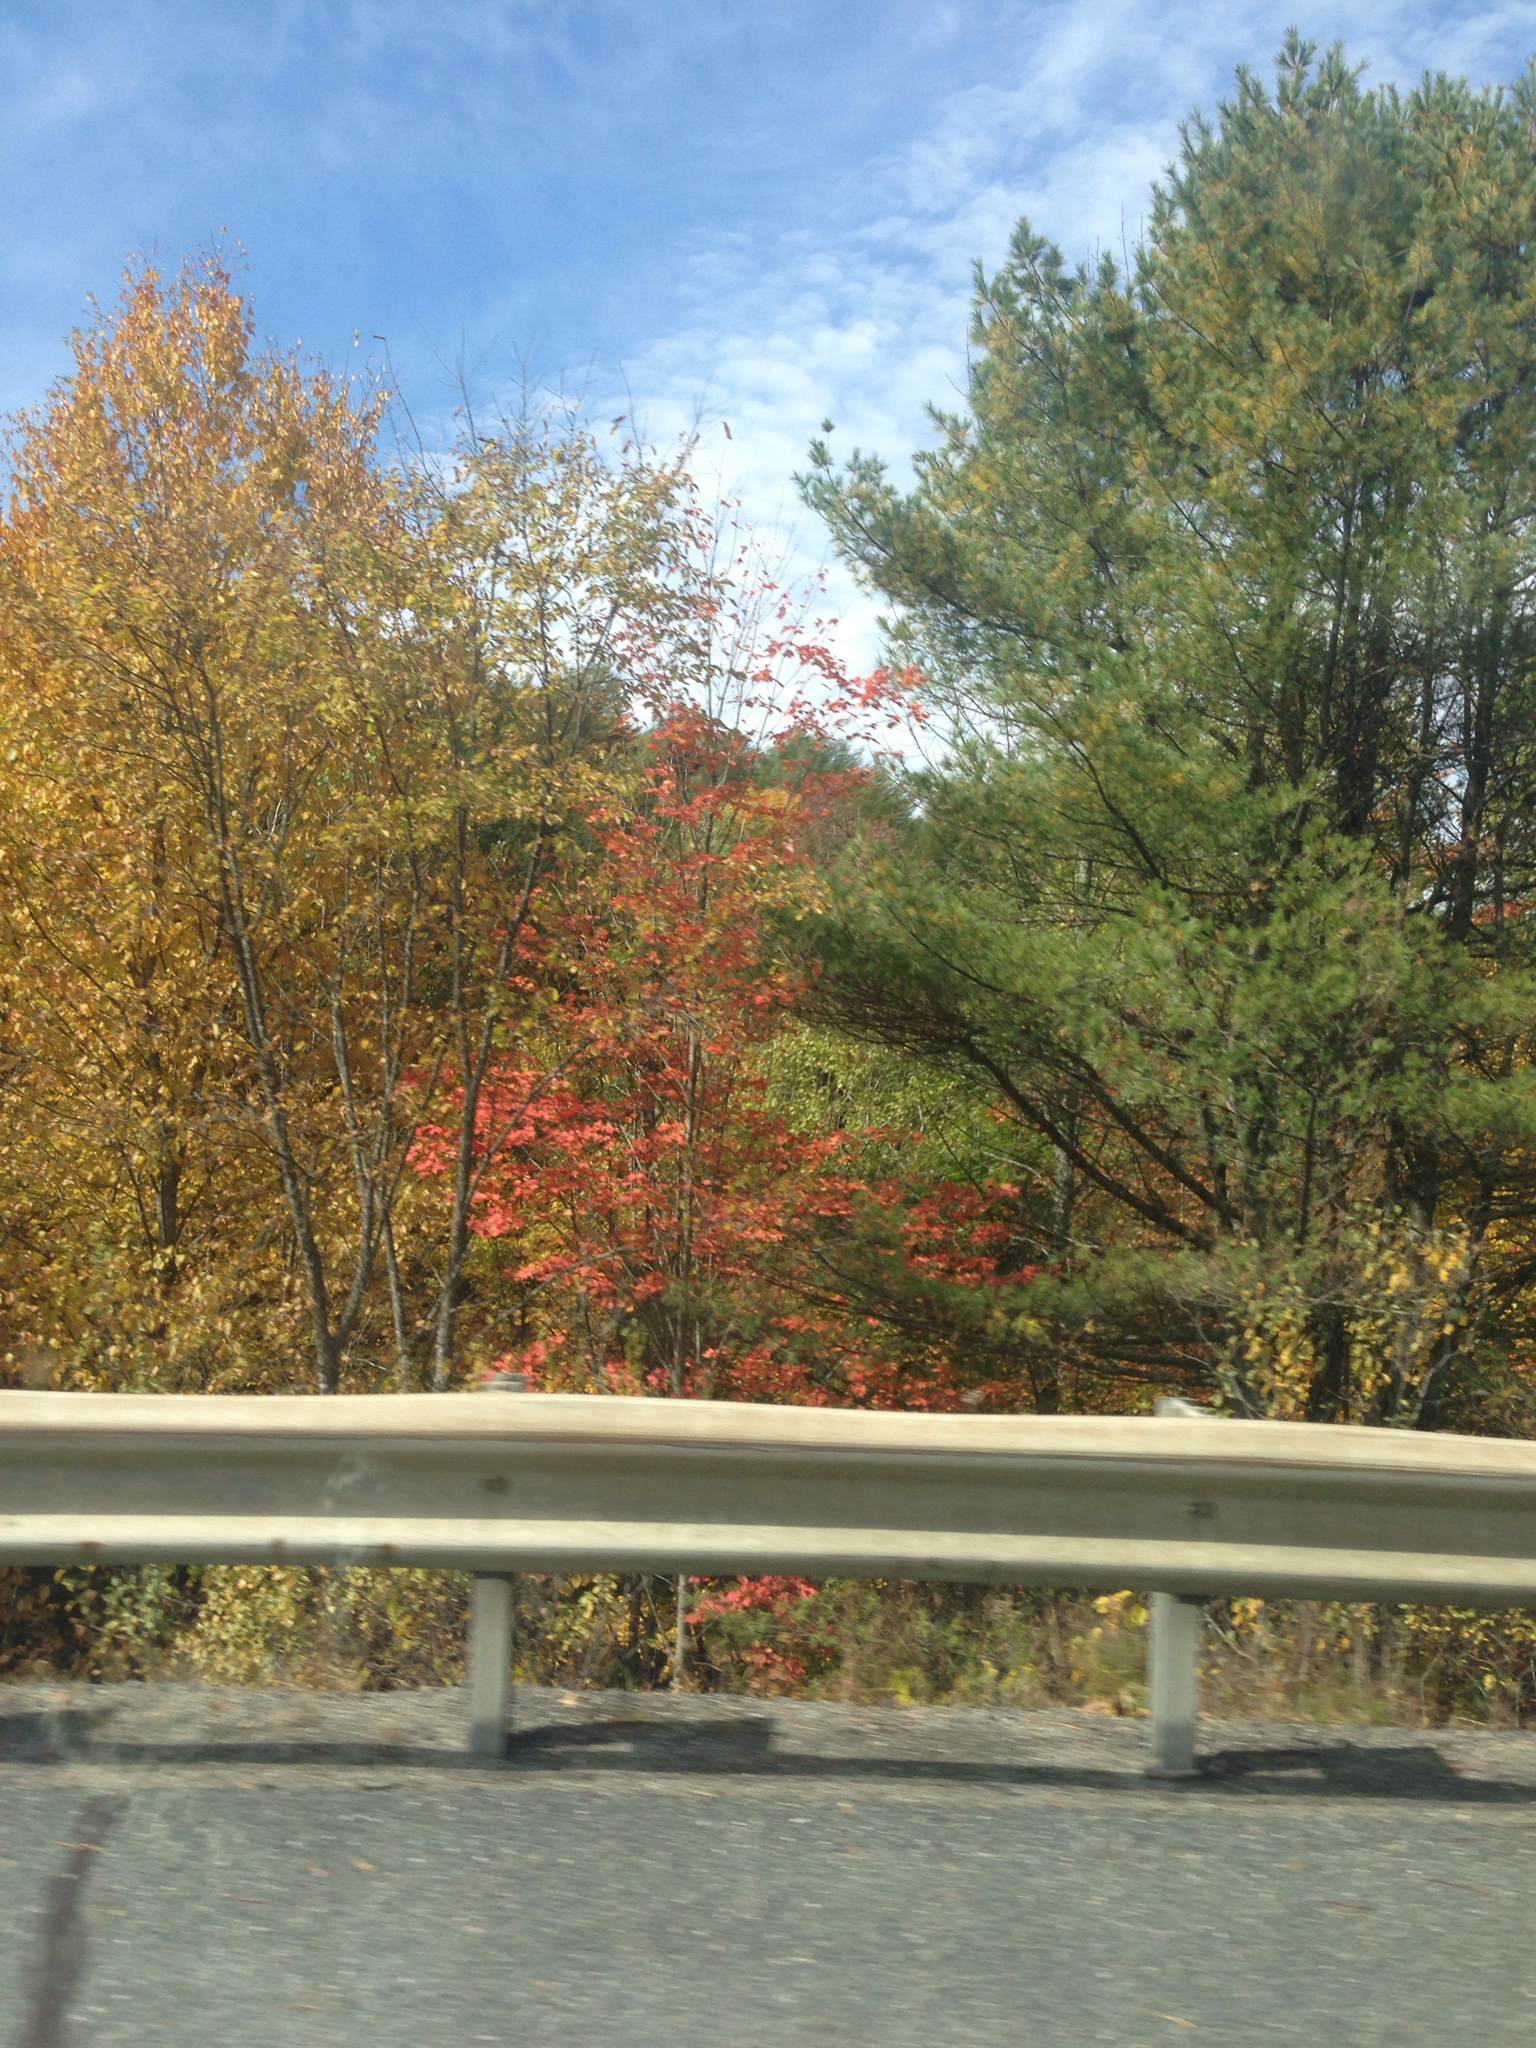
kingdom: Plantae
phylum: Tracheophyta
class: Pinopsida
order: Pinales
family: Pinaceae
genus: Pinus
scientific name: Pinus strobus
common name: Weymouth pine
